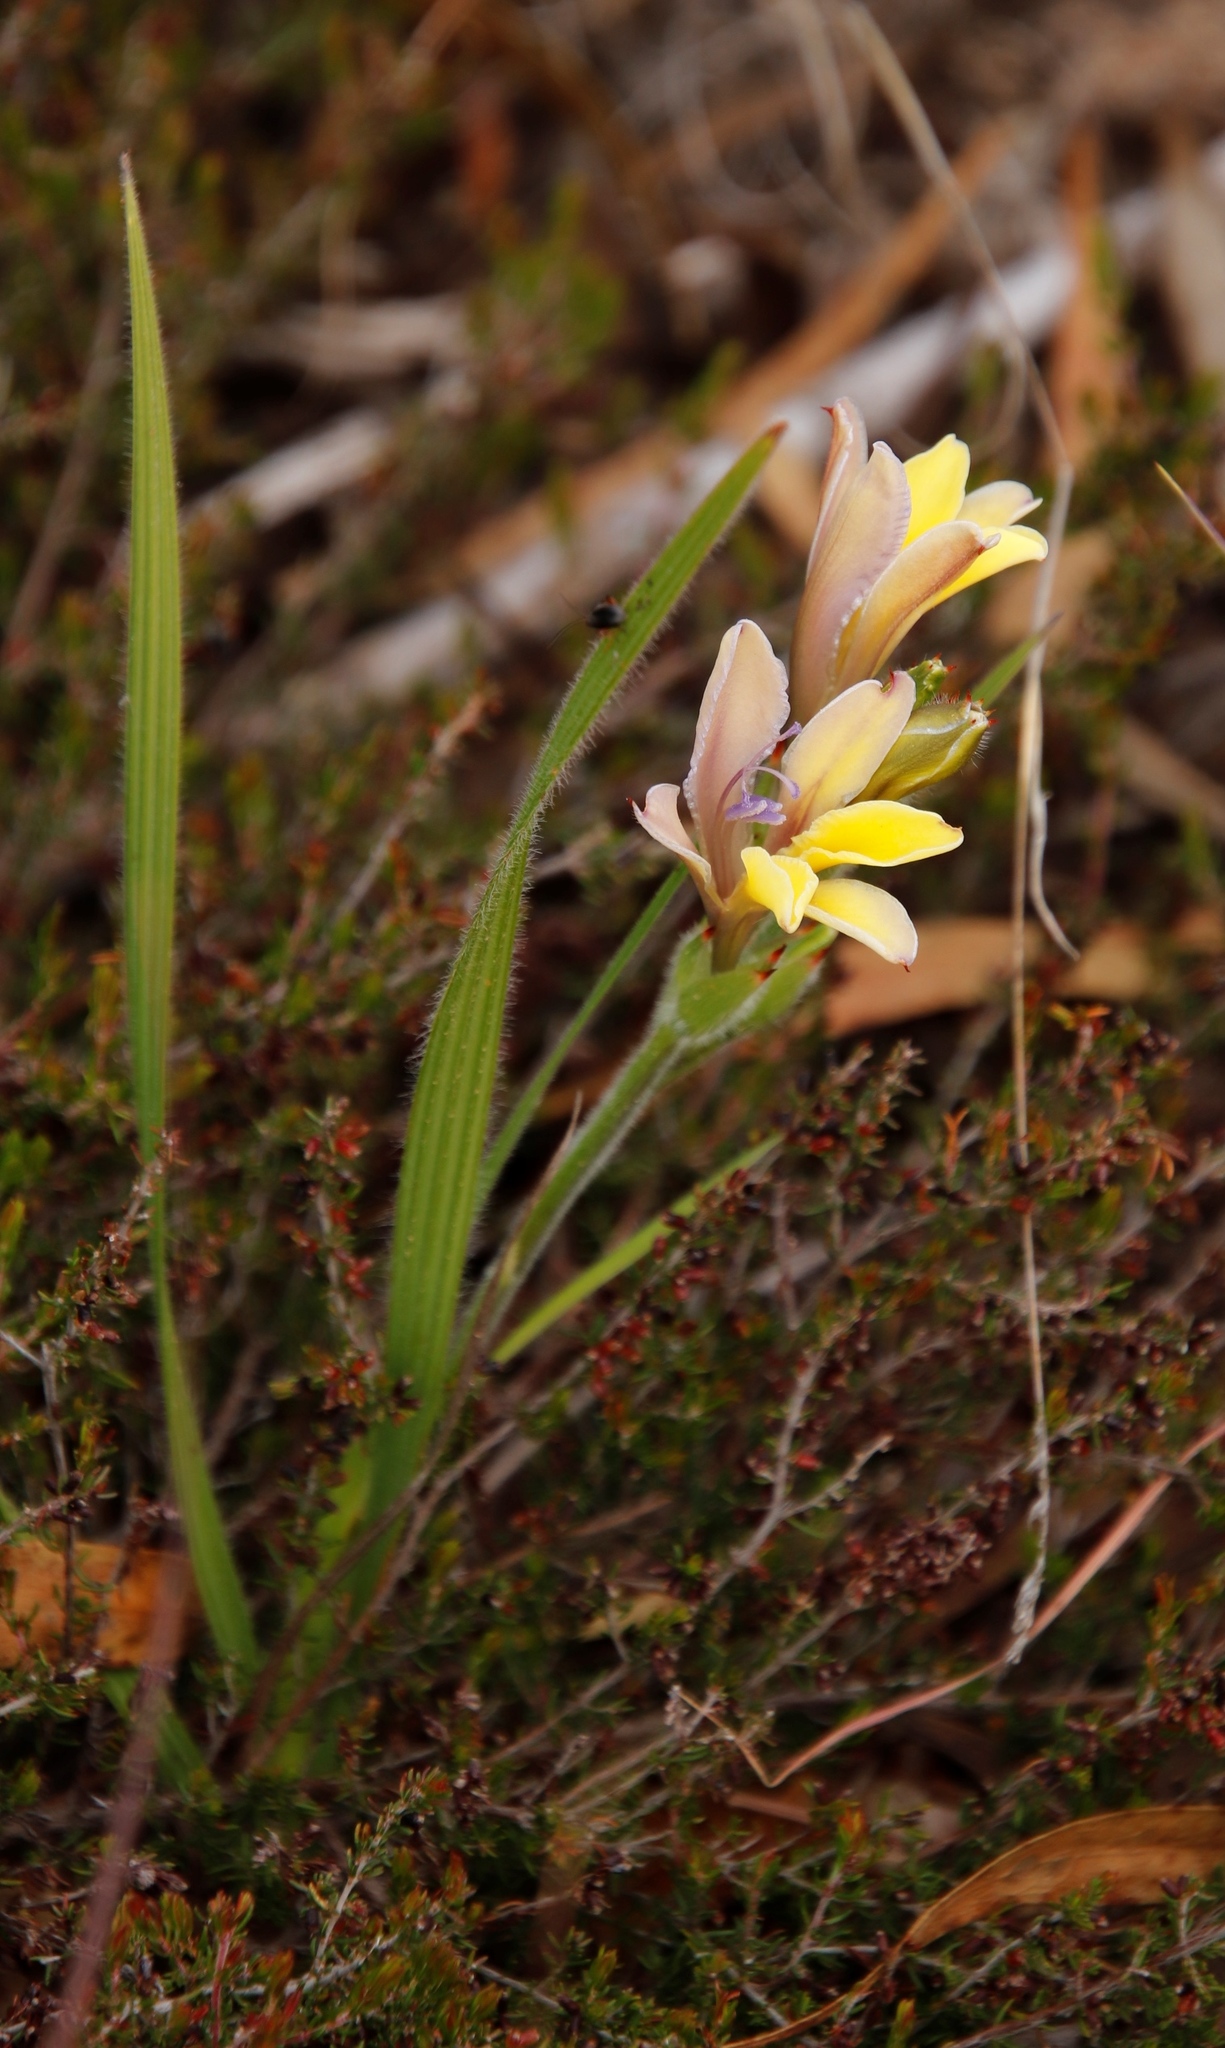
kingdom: Plantae
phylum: Tracheophyta
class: Liliopsida
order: Asparagales
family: Iridaceae
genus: Babiana
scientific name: Babiana patula
